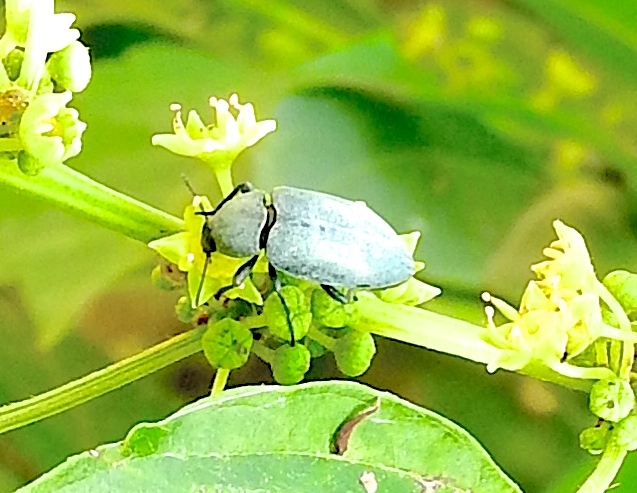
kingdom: Animalia
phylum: Arthropoda
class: Insecta
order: Coleoptera
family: Tenebrionidae
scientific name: Tenebrionidae
